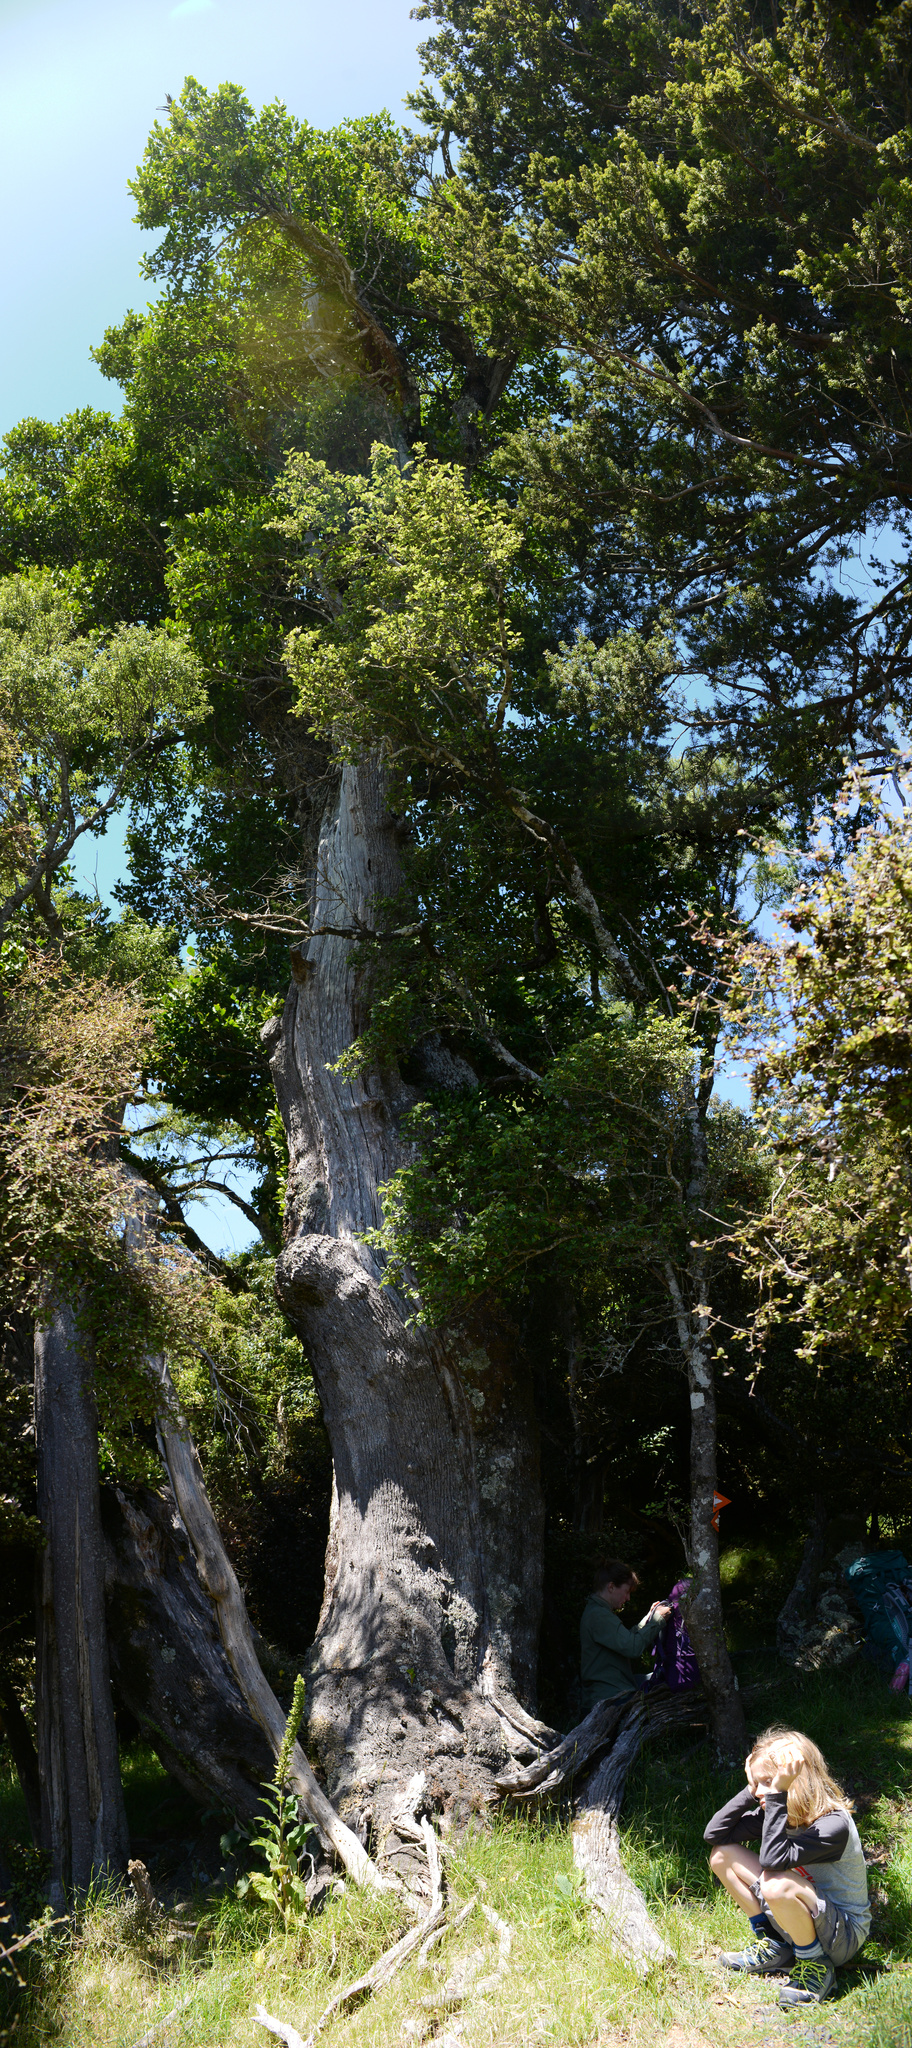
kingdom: Plantae
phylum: Tracheophyta
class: Magnoliopsida
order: Apiales
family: Griseliniaceae
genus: Griselinia
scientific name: Griselinia littoralis
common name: New zealand broadleaf
